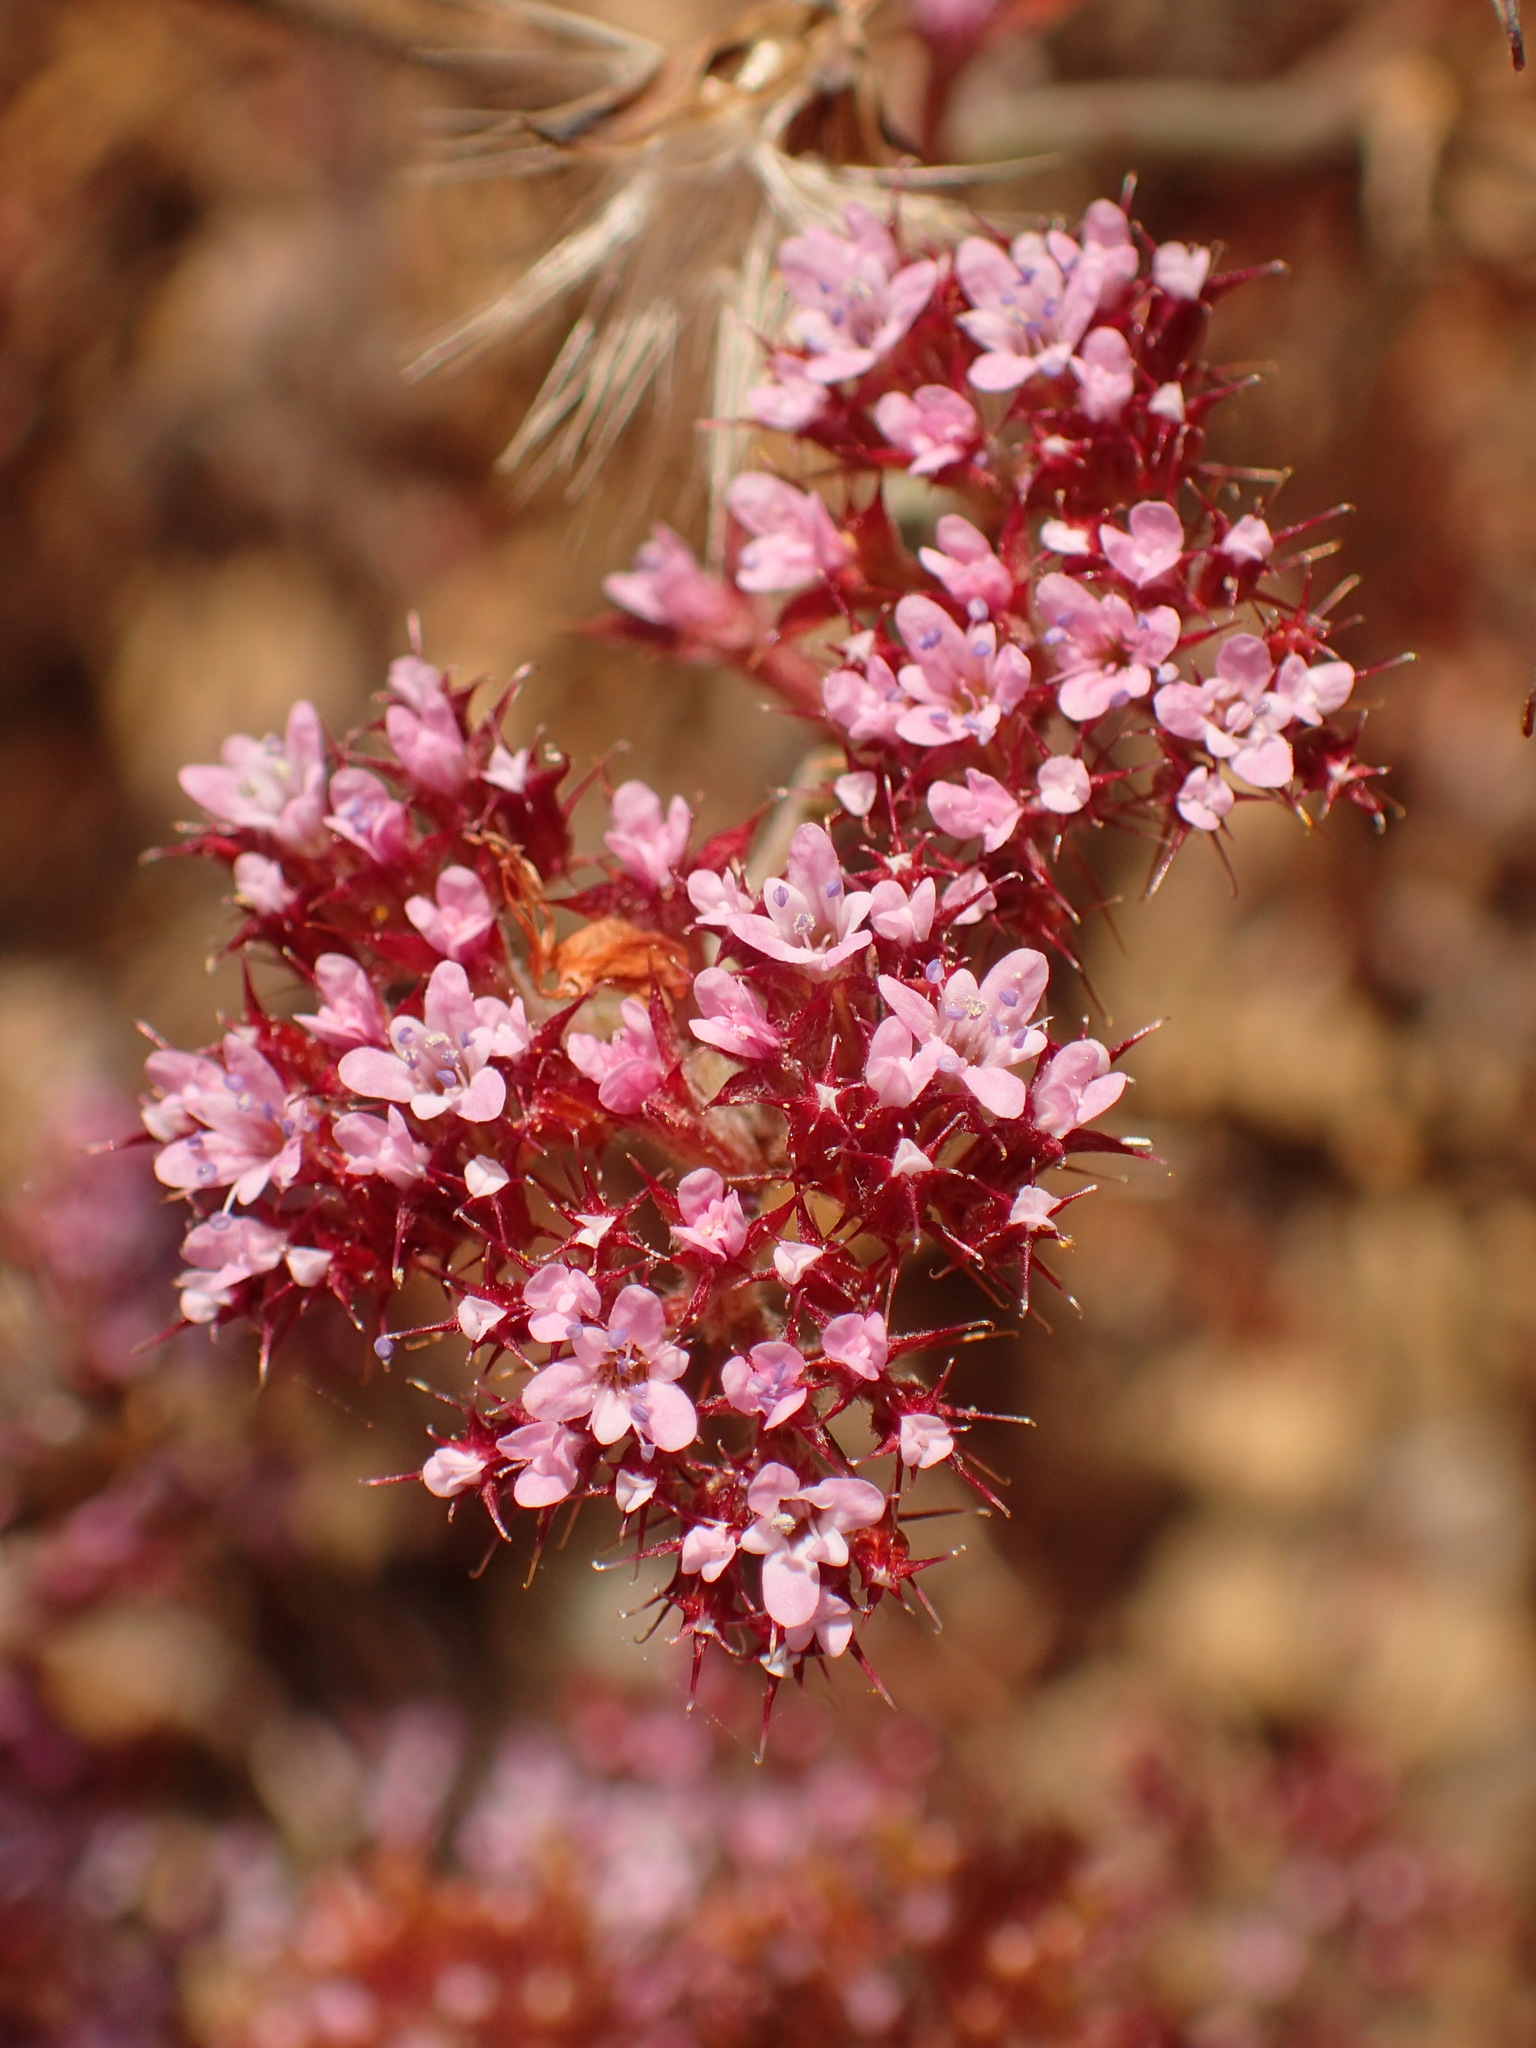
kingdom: Plantae
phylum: Tracheophyta
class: Magnoliopsida
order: Caryophyllales
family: Polygonaceae
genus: Chorizanthe
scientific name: Chorizanthe staticoides
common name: Turkish rugging
